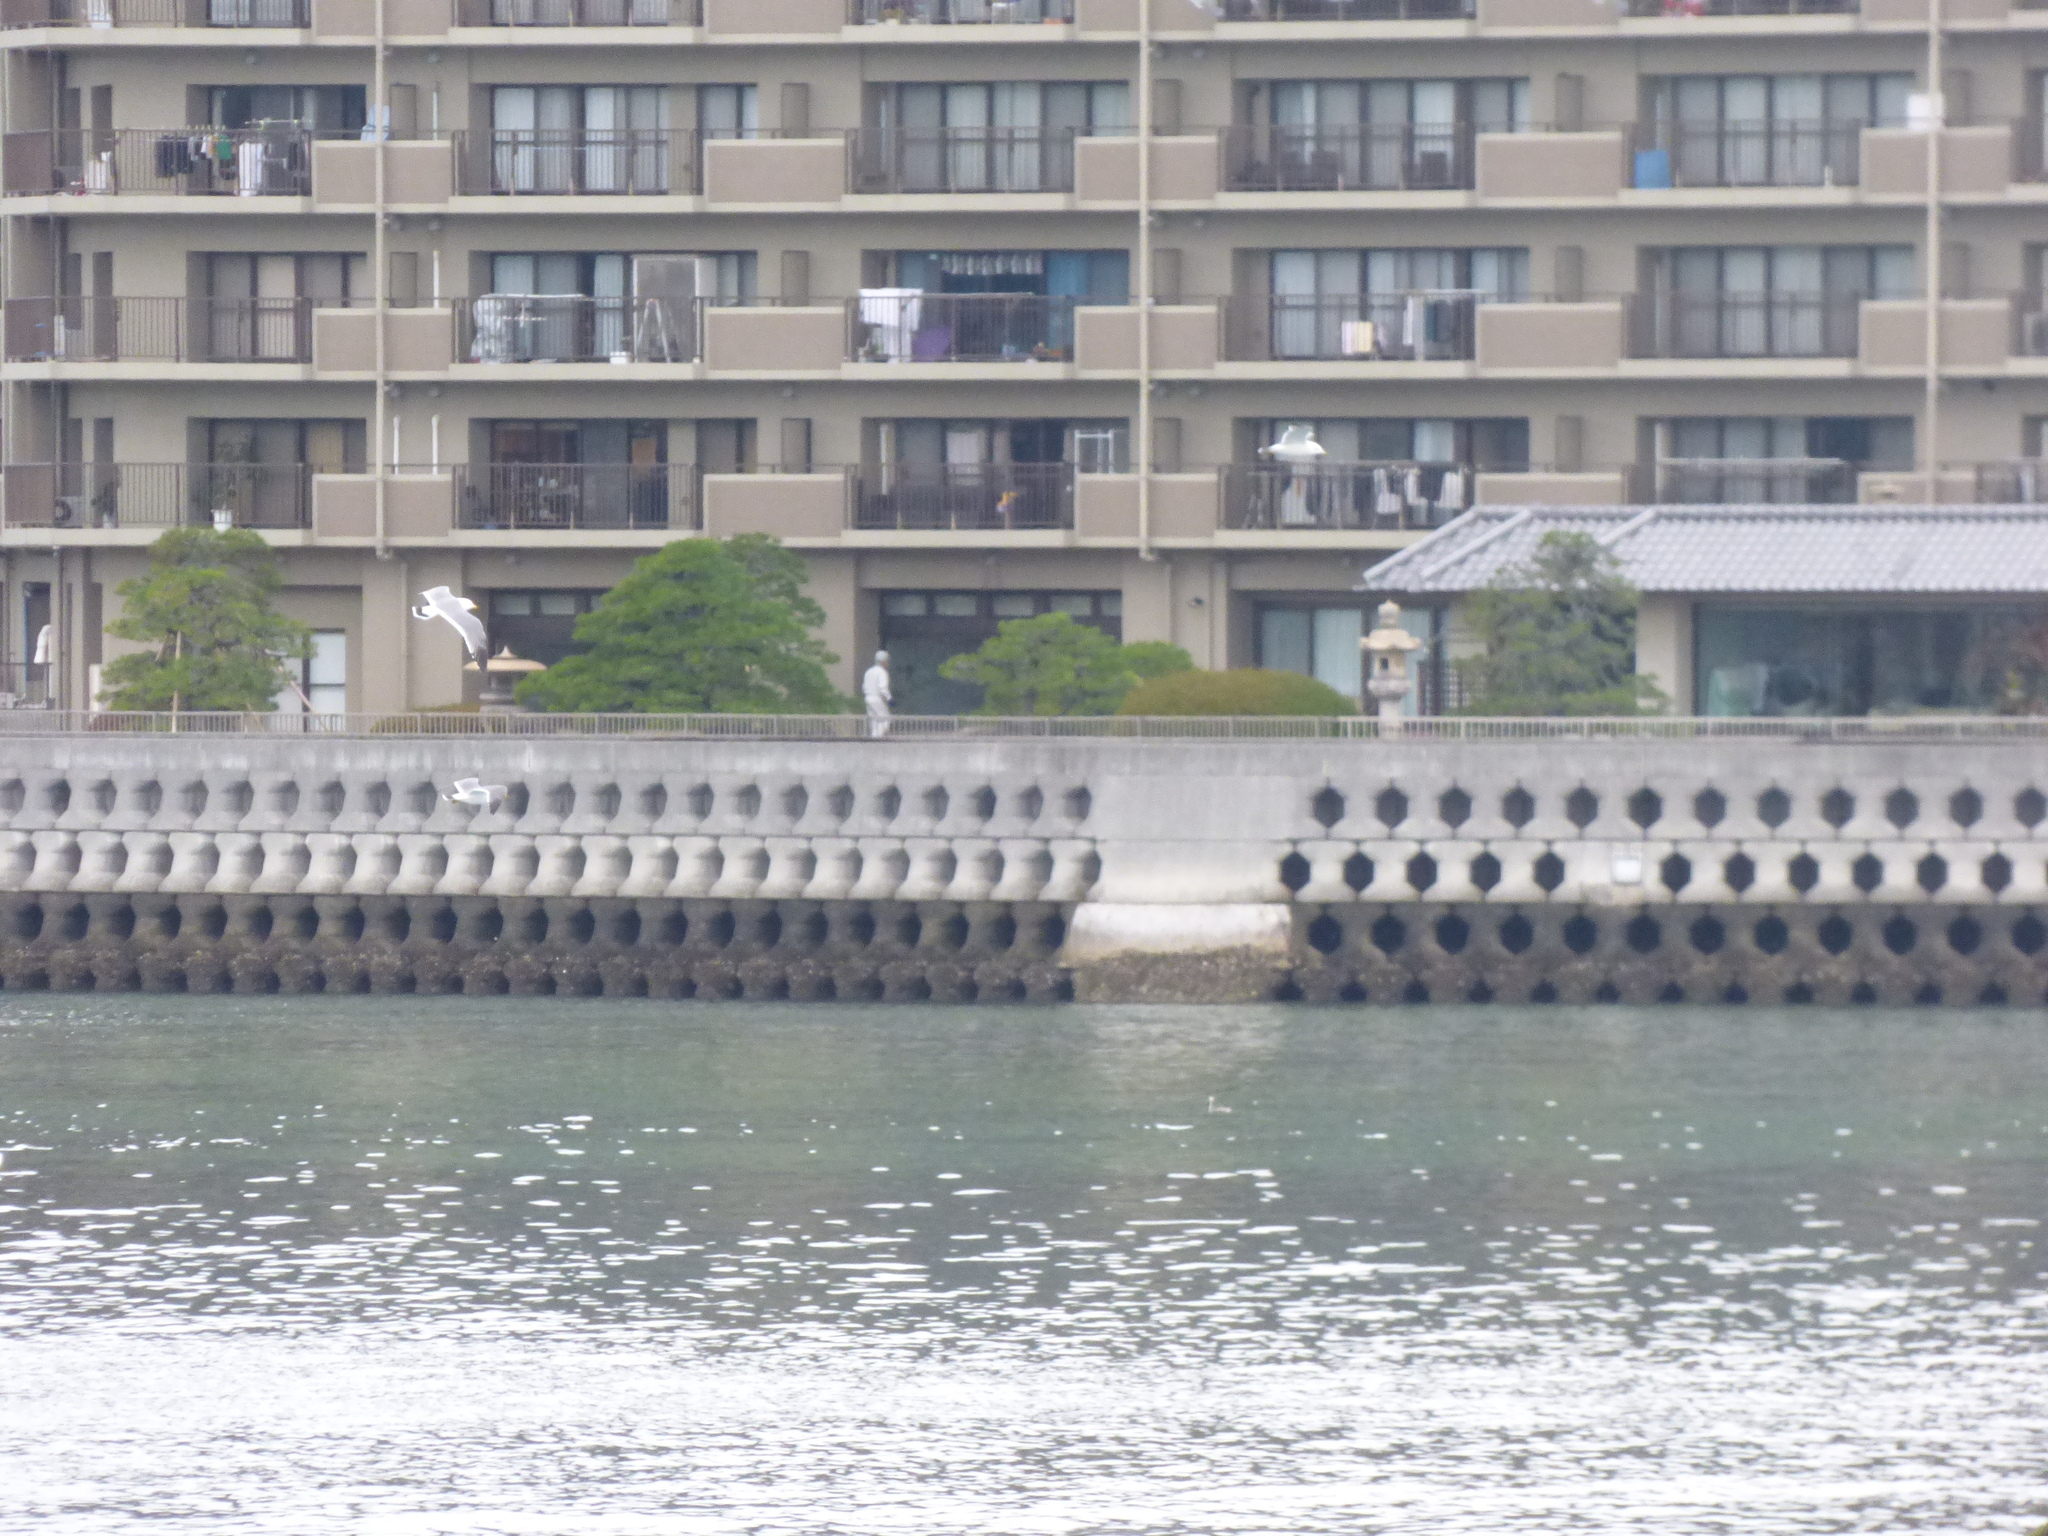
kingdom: Animalia
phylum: Chordata
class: Aves
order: Charadriiformes
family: Laridae
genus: Larus
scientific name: Larus crassirostris
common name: Black-tailed gull
